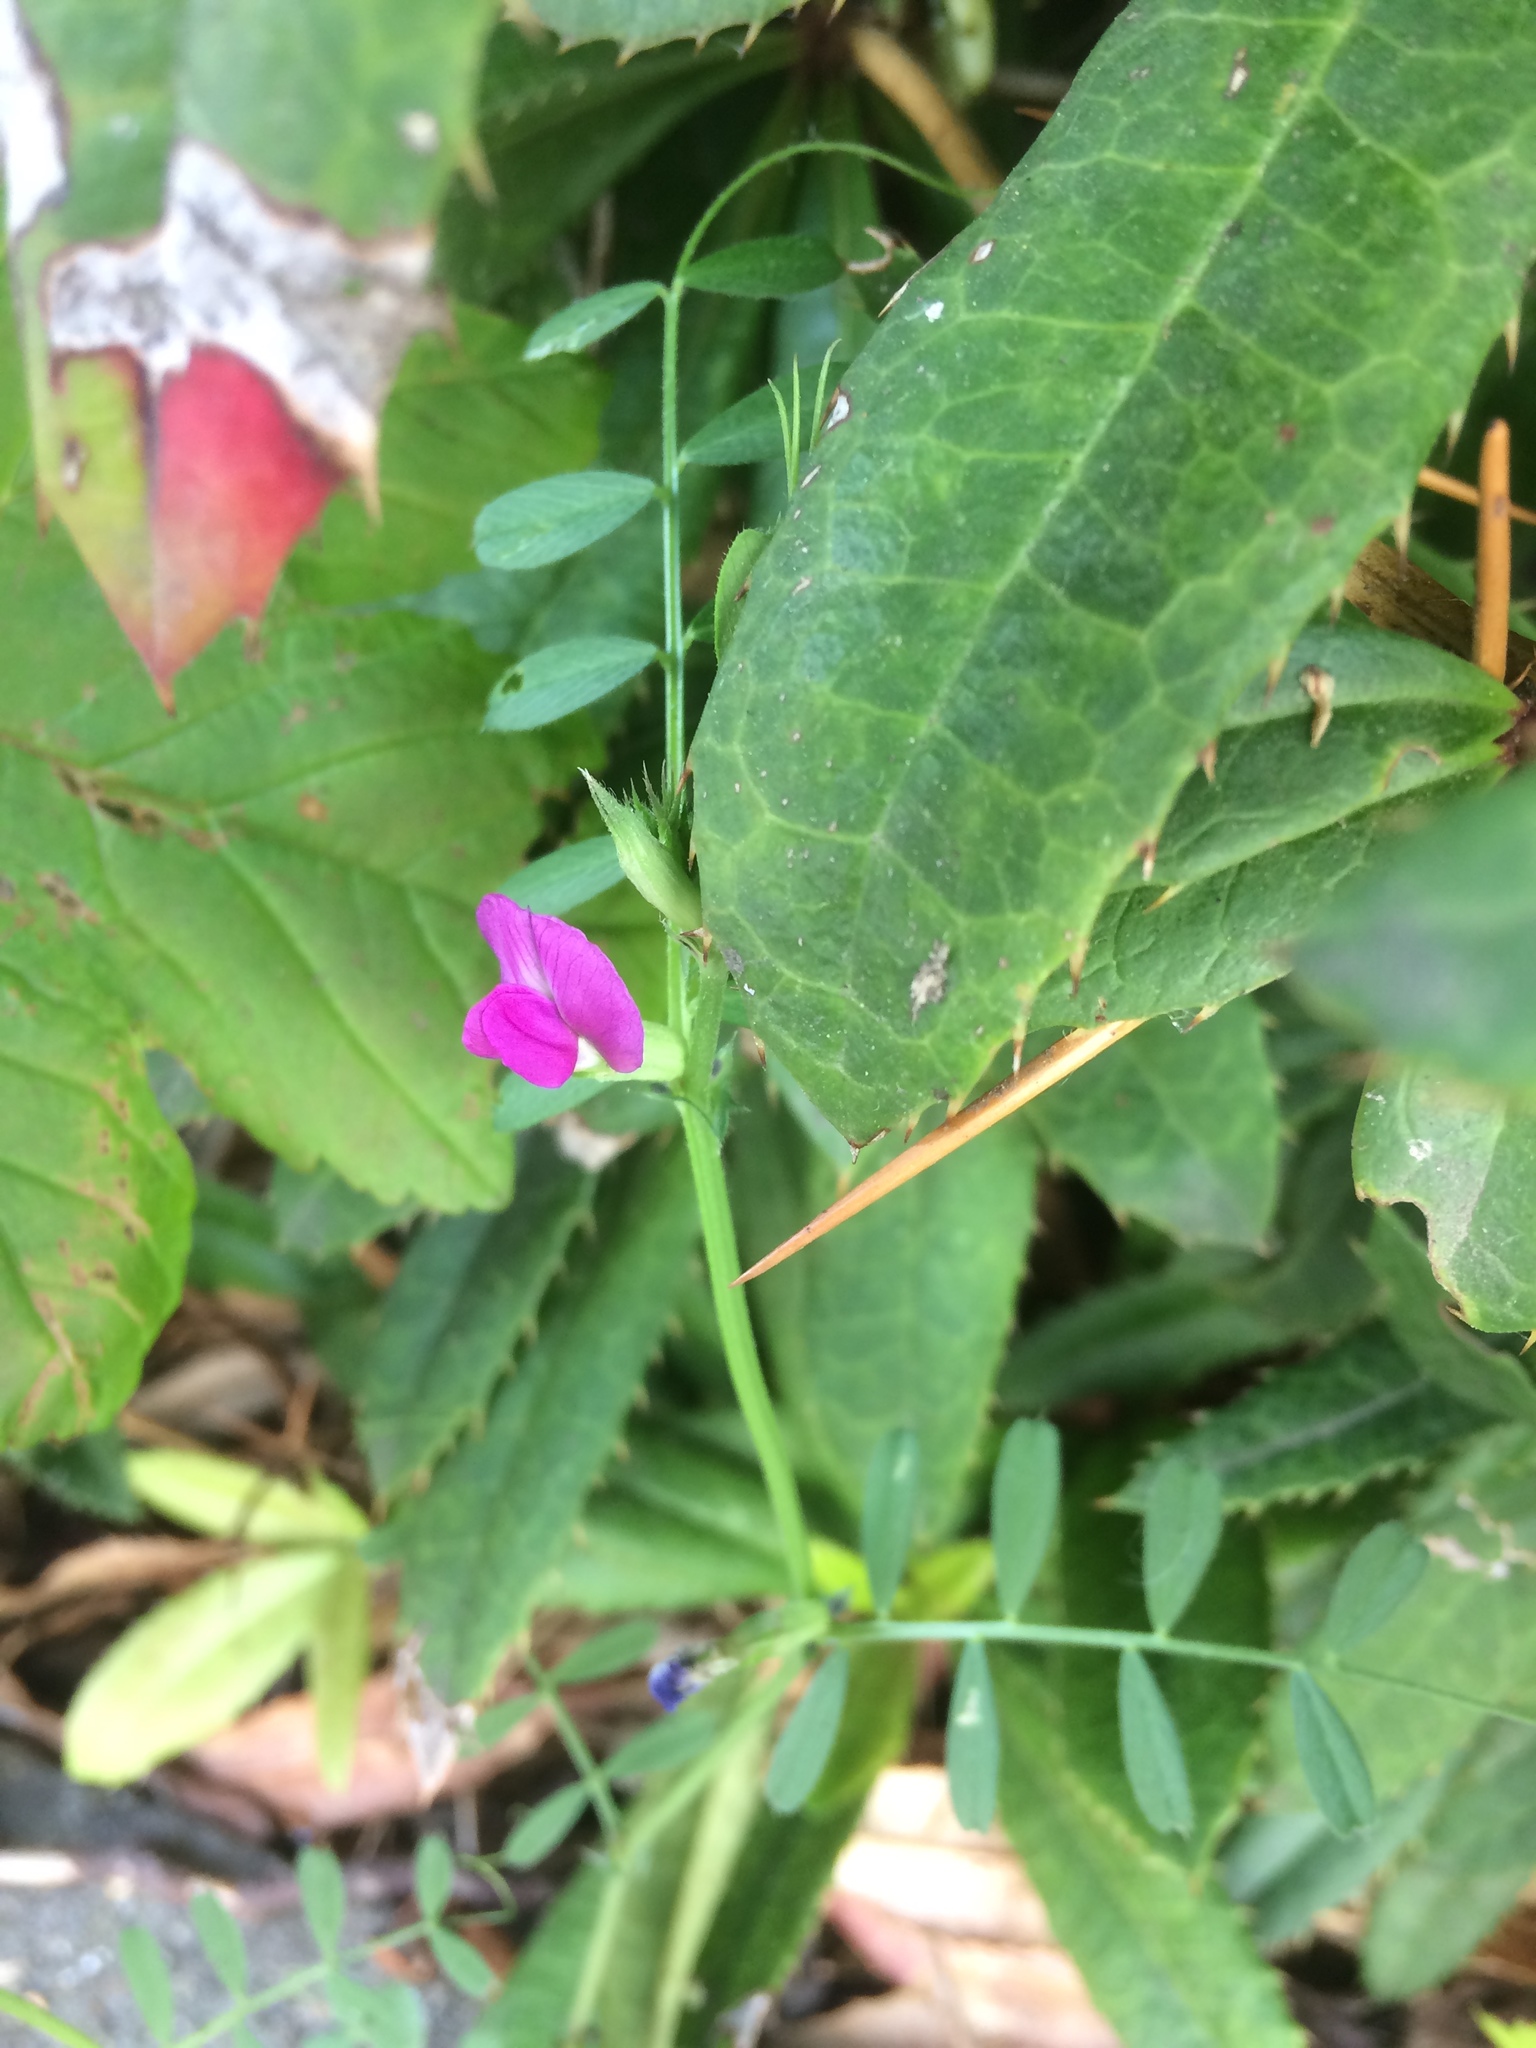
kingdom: Plantae
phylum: Tracheophyta
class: Magnoliopsida
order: Fabales
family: Fabaceae
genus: Vicia
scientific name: Vicia sativa
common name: Garden vetch
